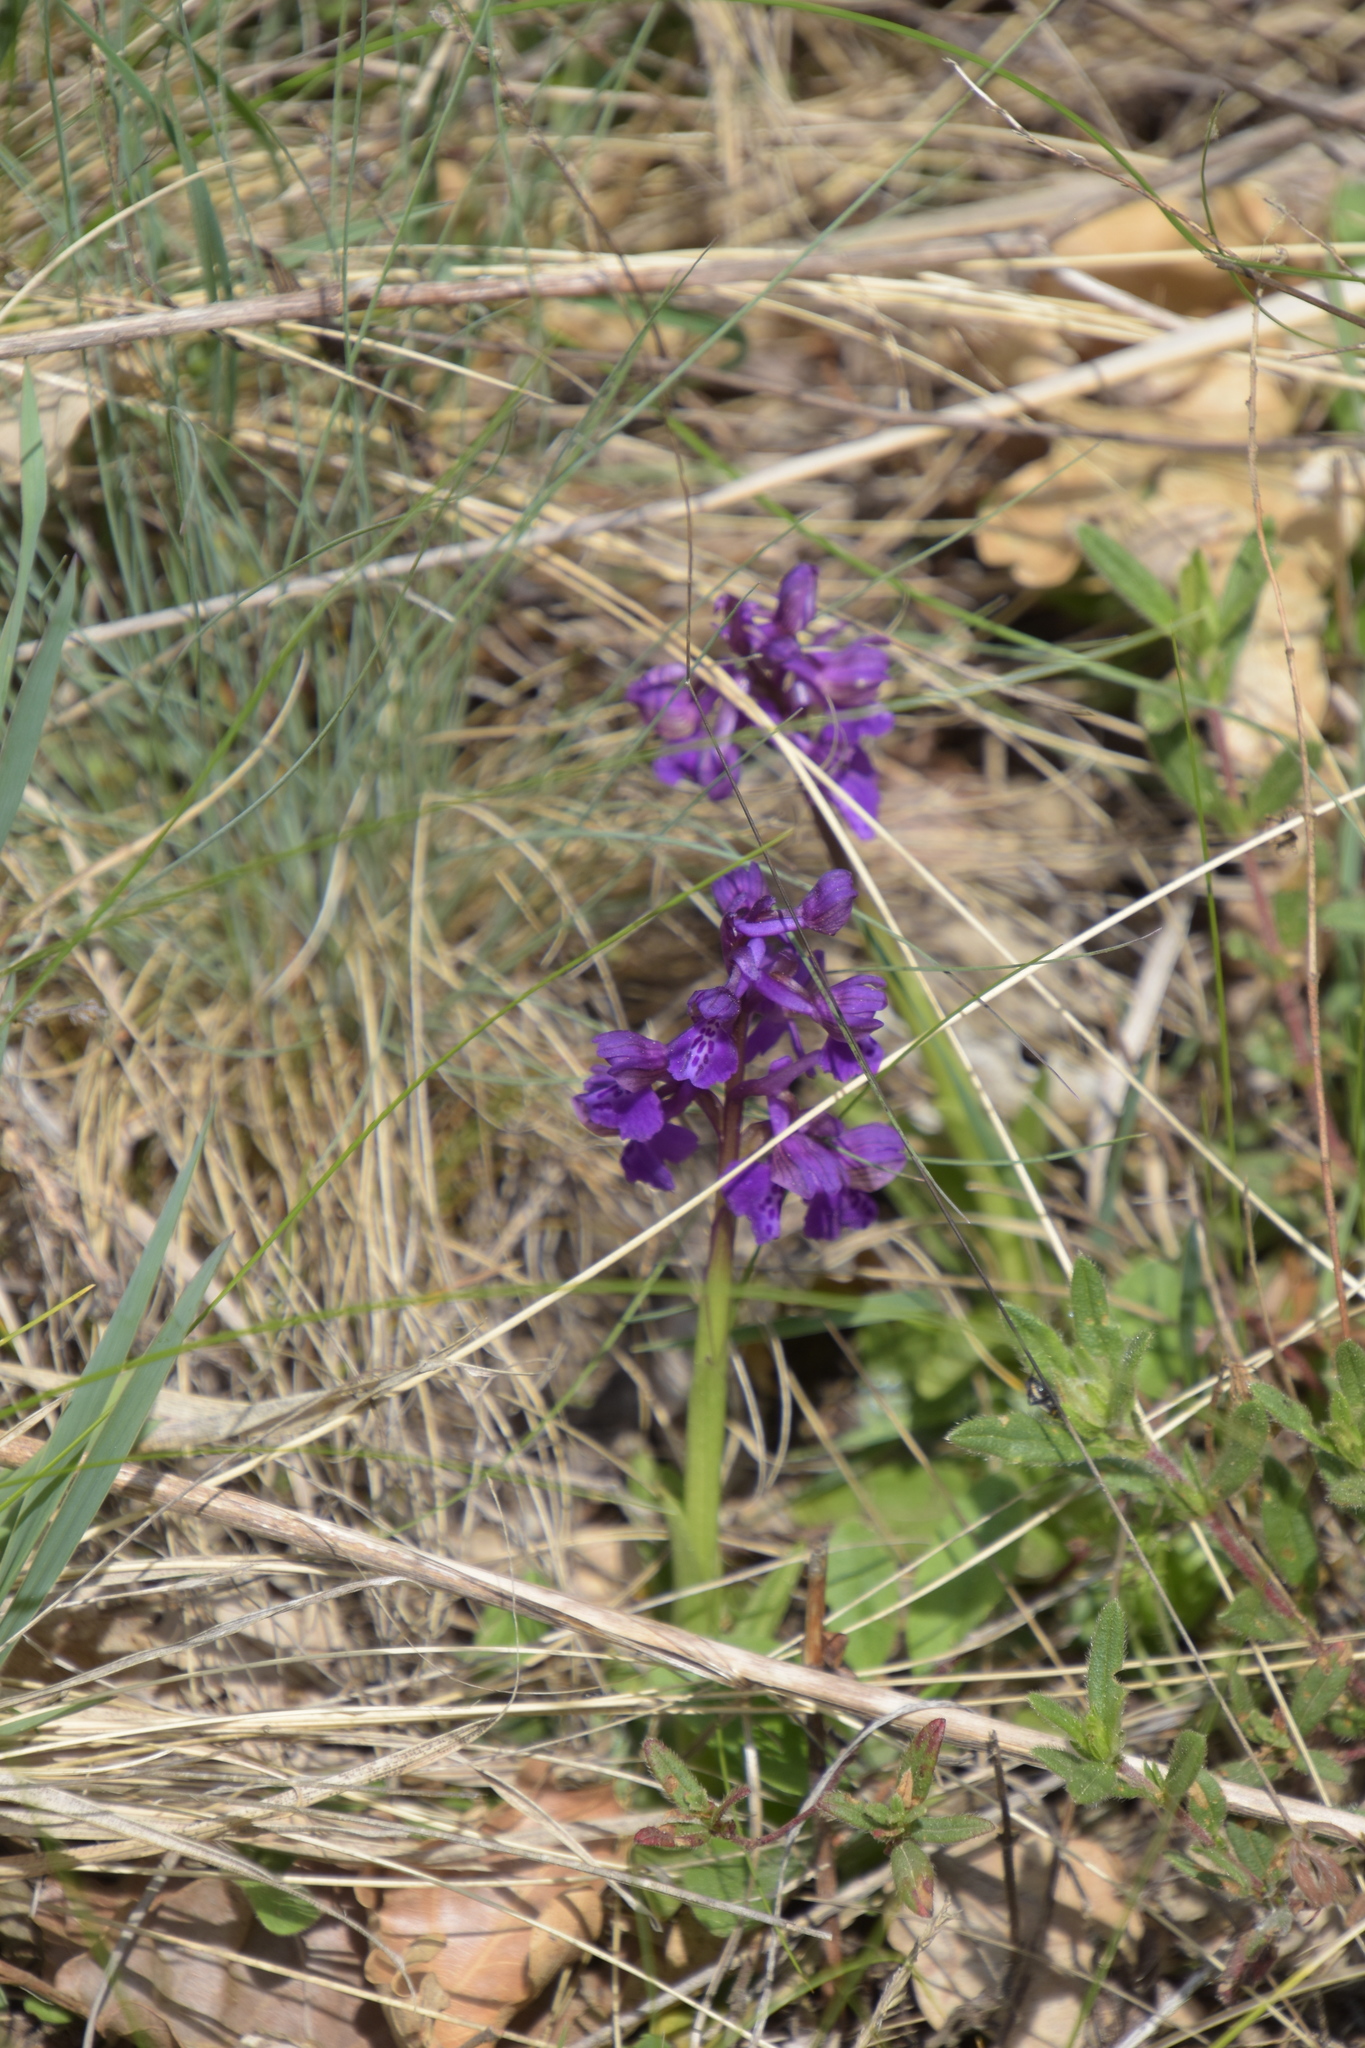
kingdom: Plantae
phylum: Tracheophyta
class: Liliopsida
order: Asparagales
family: Orchidaceae
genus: Anacamptis
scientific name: Anacamptis morio
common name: Green-winged orchid
